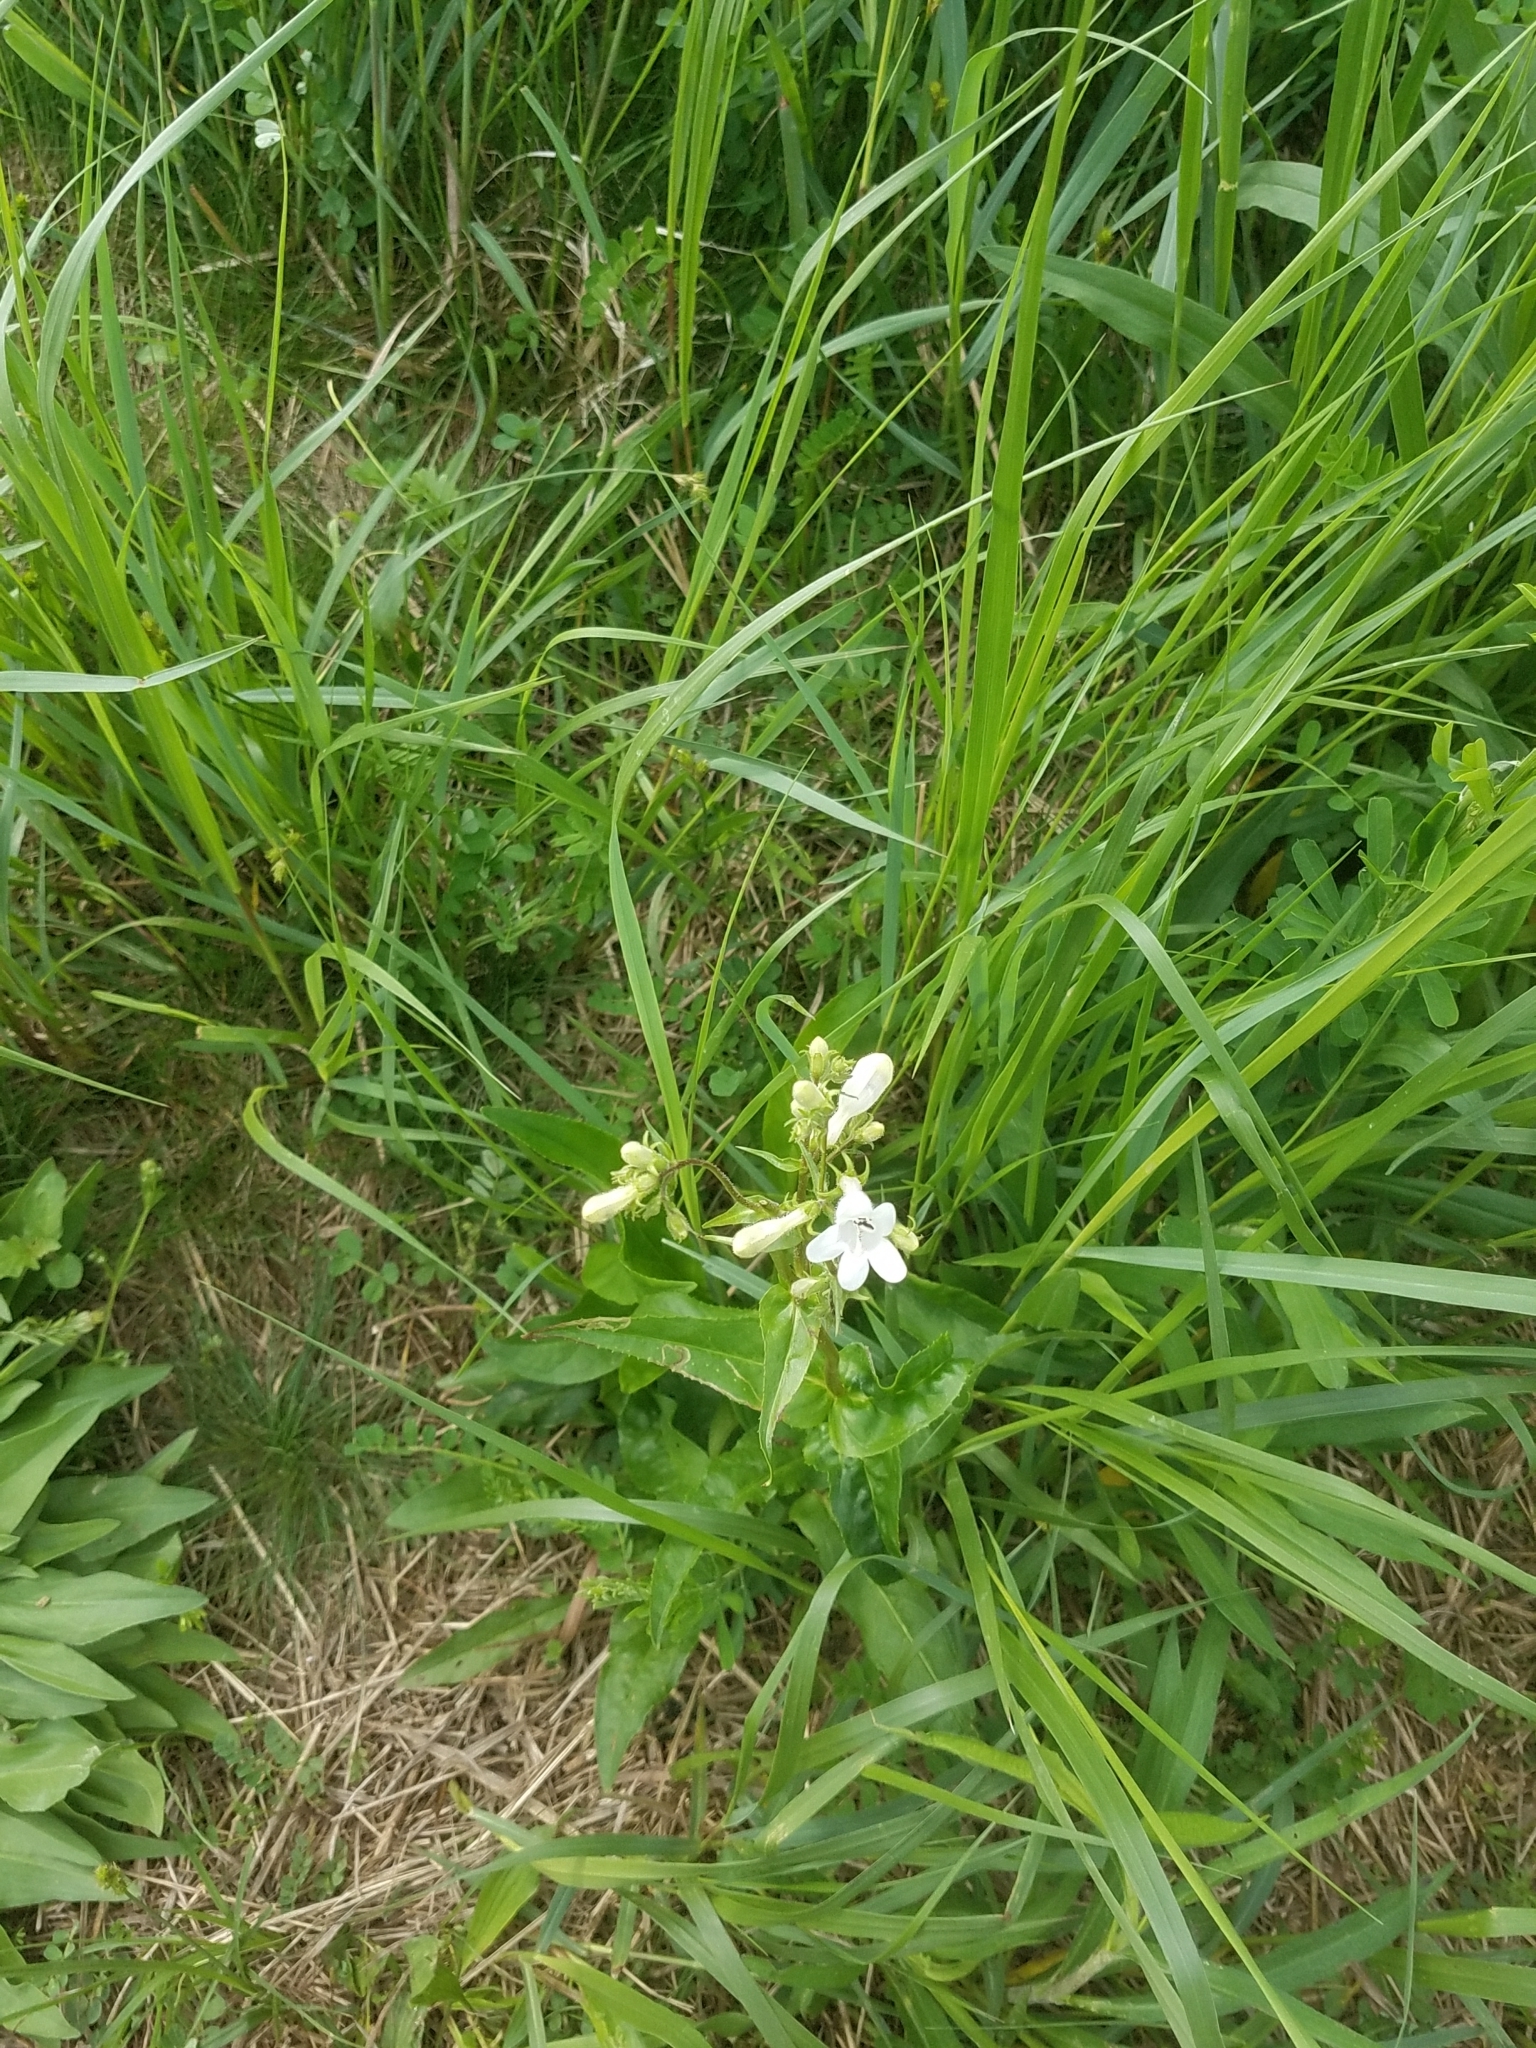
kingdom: Plantae
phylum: Tracheophyta
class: Magnoliopsida
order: Lamiales
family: Plantaginaceae
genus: Penstemon
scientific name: Penstemon digitalis
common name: Foxglove beardtongue
